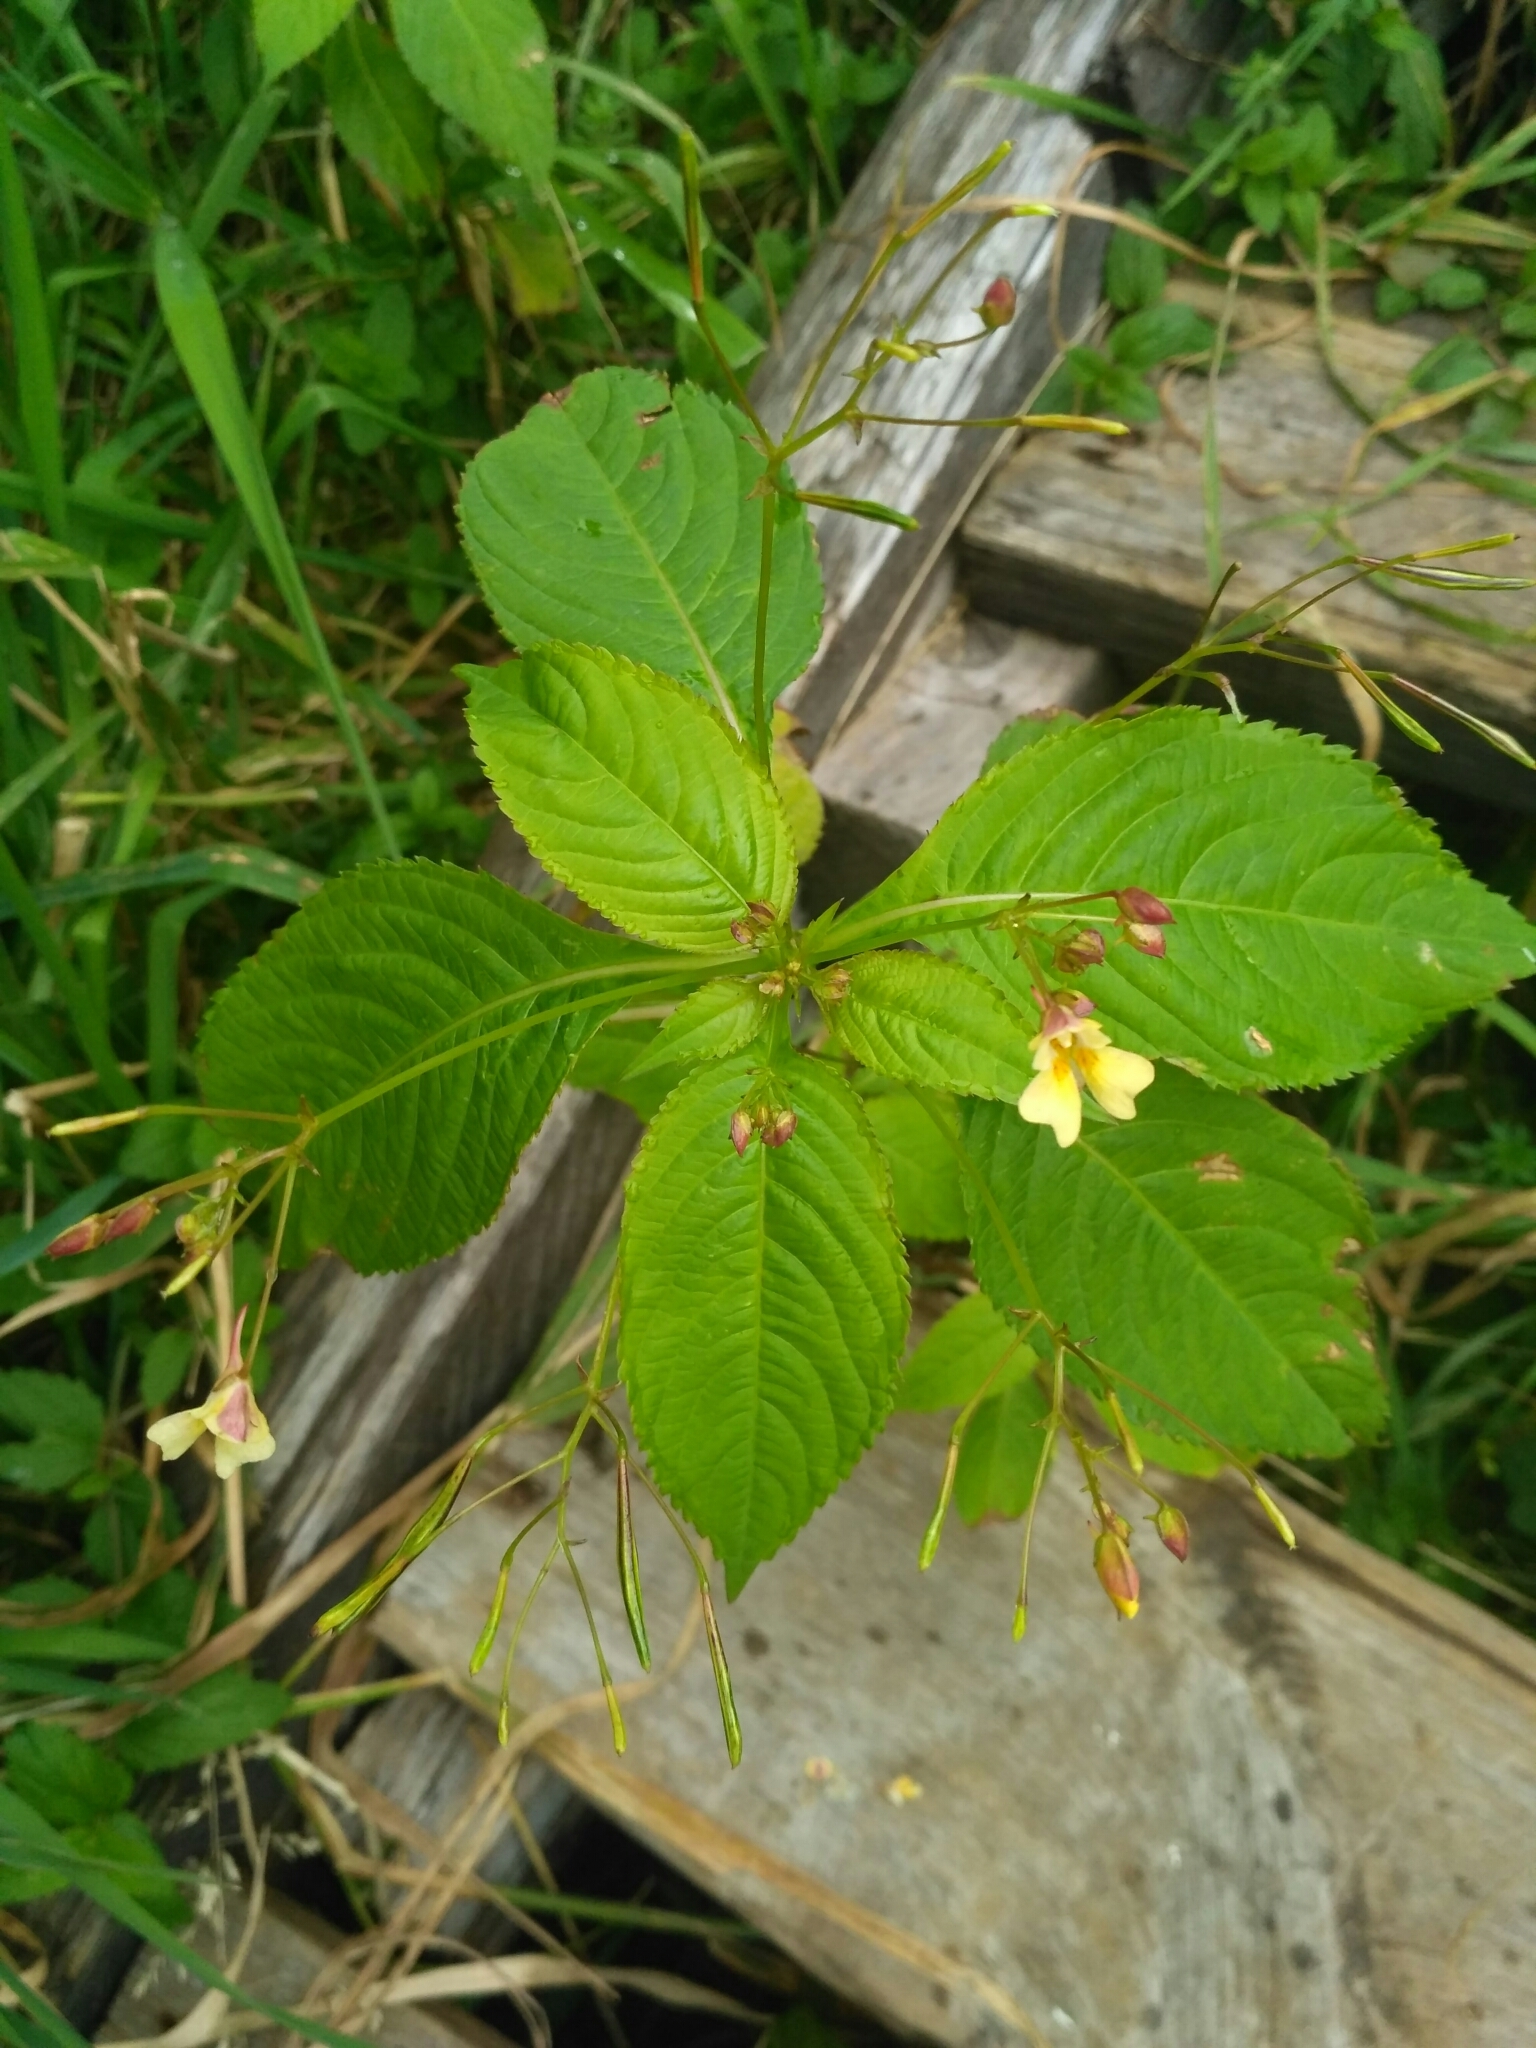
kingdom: Plantae
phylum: Tracheophyta
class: Magnoliopsida
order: Ericales
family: Balsaminaceae
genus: Impatiens
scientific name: Impatiens parviflora
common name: Small balsam
